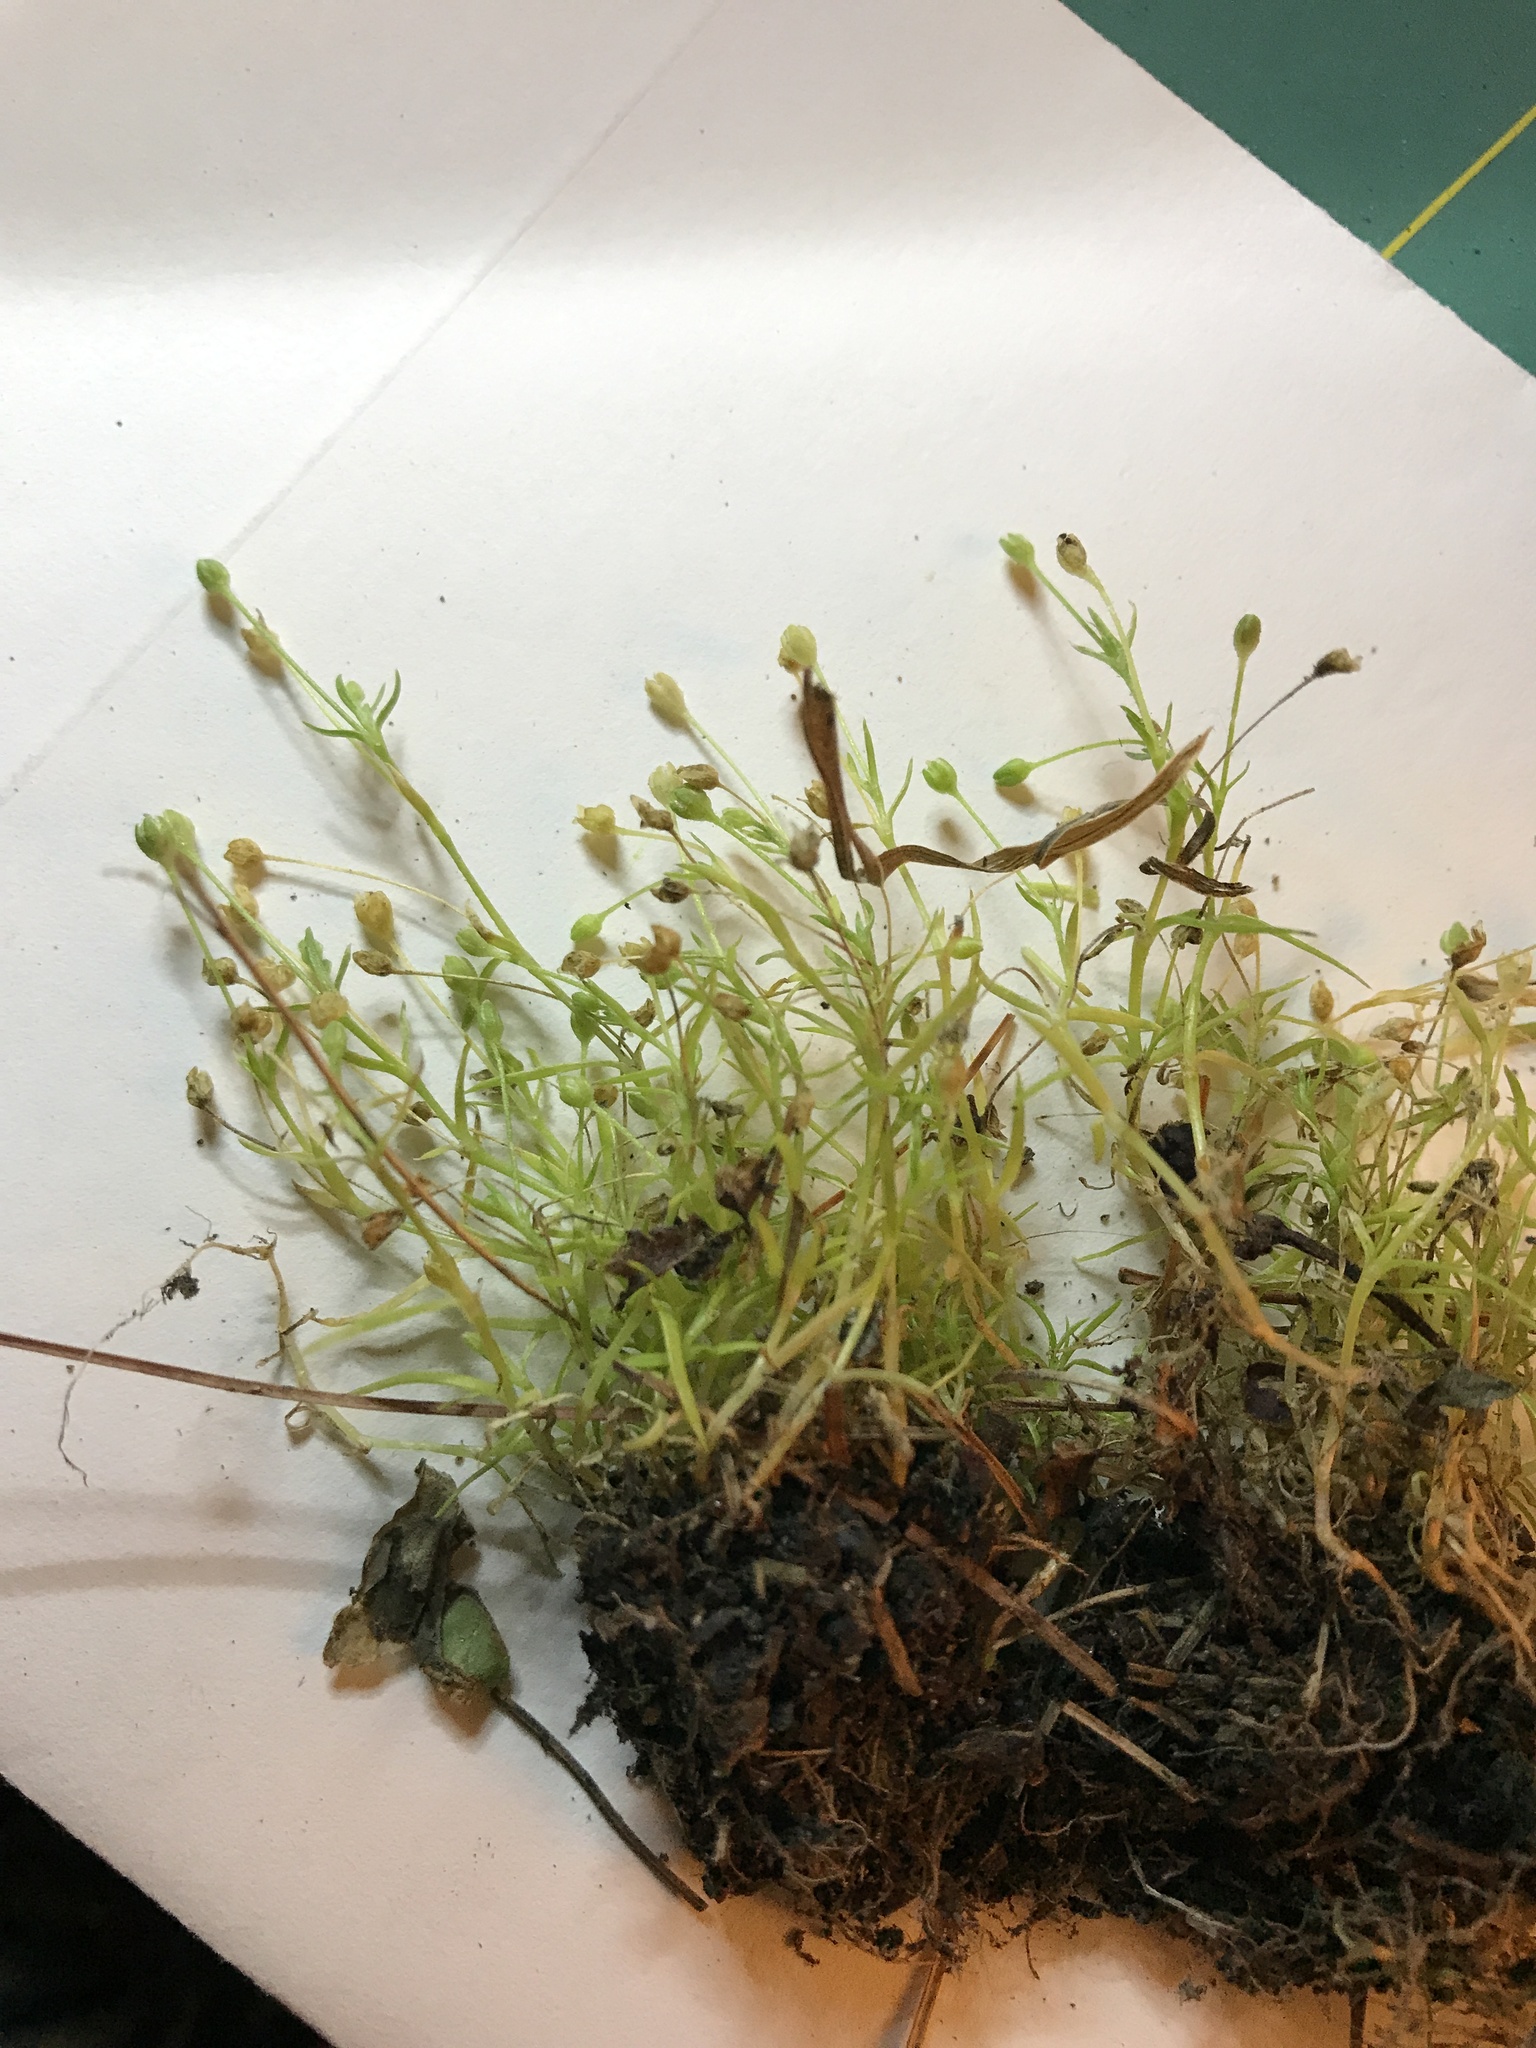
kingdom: Plantae
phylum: Tracheophyta
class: Magnoliopsida
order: Caryophyllales
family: Caryophyllaceae
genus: Sagina
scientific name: Sagina decumbens
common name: Decumbent pearlwort
